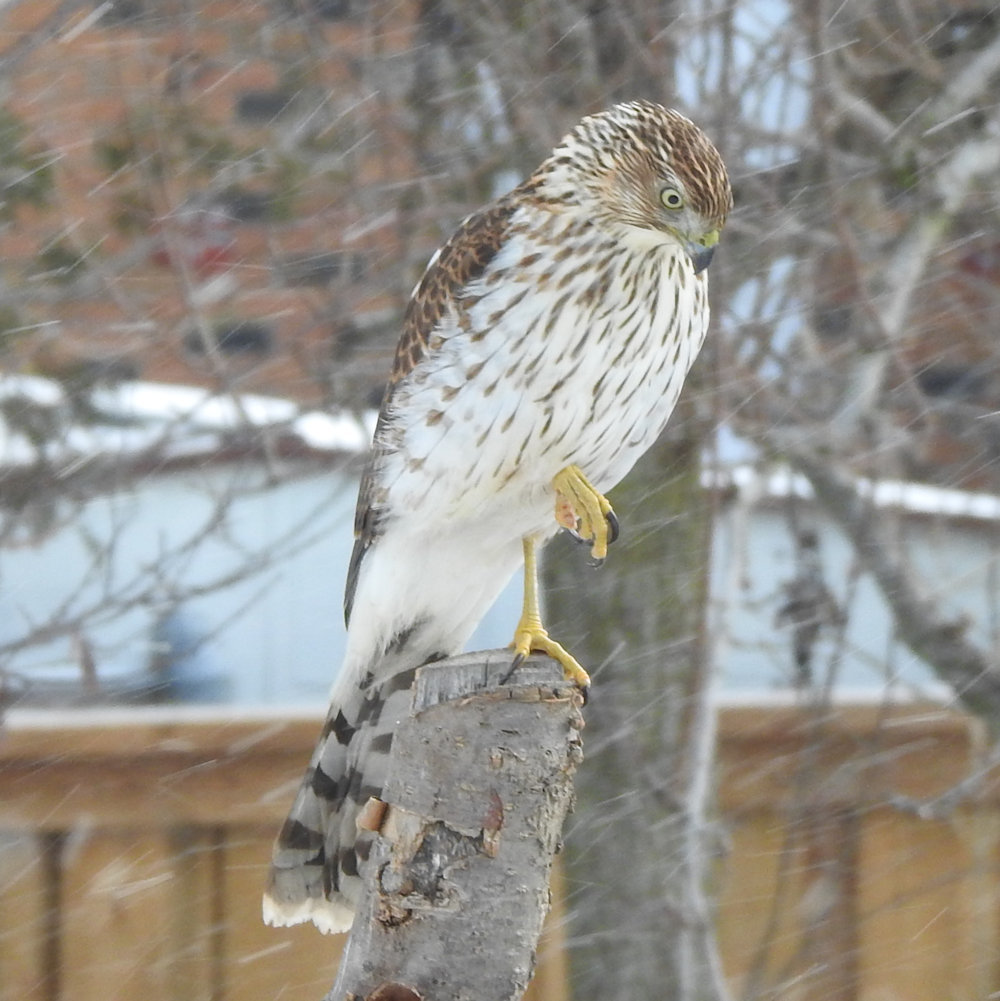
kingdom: Animalia
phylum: Chordata
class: Aves
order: Accipitriformes
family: Accipitridae
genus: Accipiter
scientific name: Accipiter cooperii
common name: Cooper's hawk
